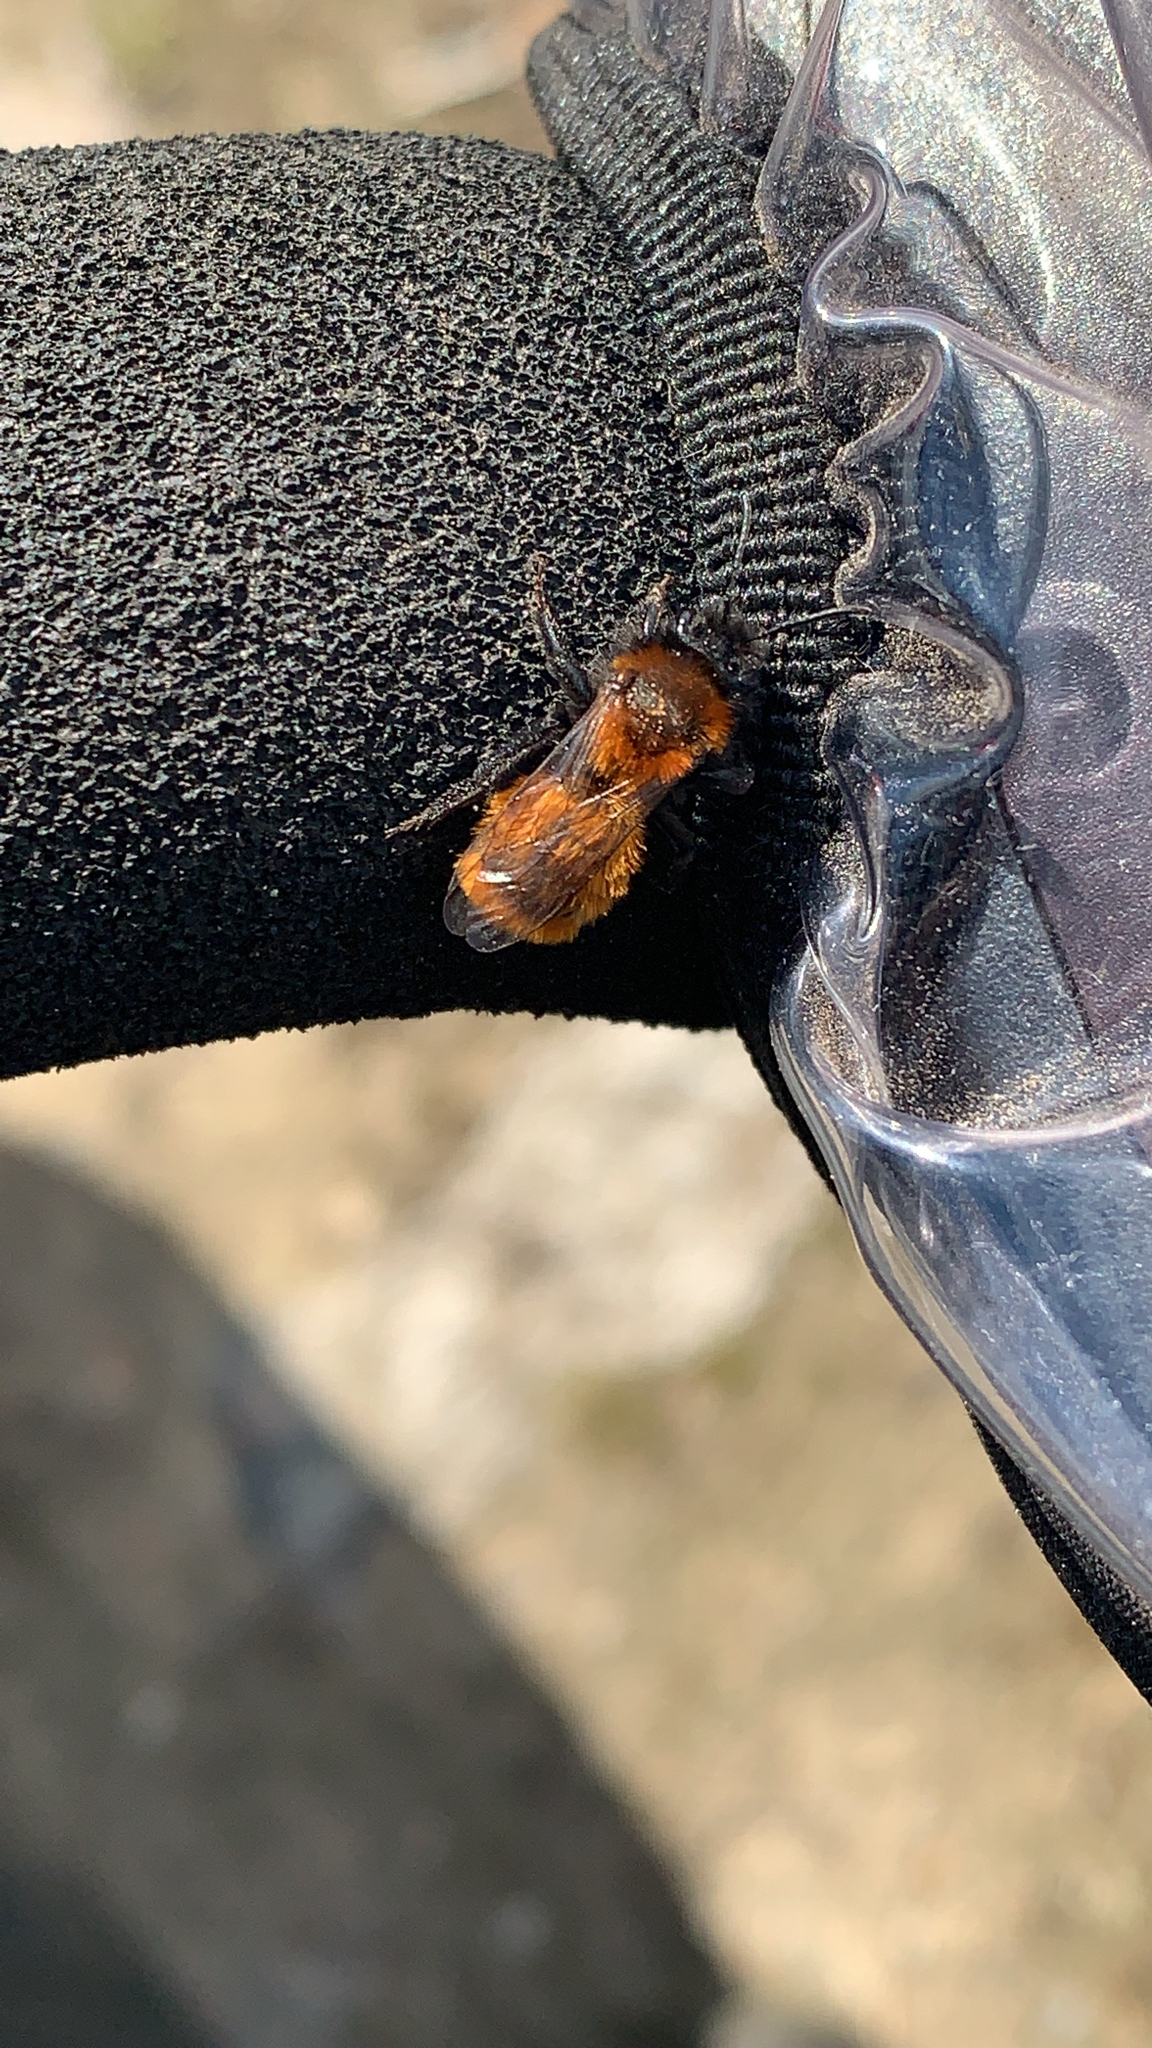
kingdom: Animalia
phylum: Arthropoda
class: Insecta
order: Hymenoptera
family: Andrenidae
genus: Andrena
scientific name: Andrena fulva
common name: Tawny mining bee
